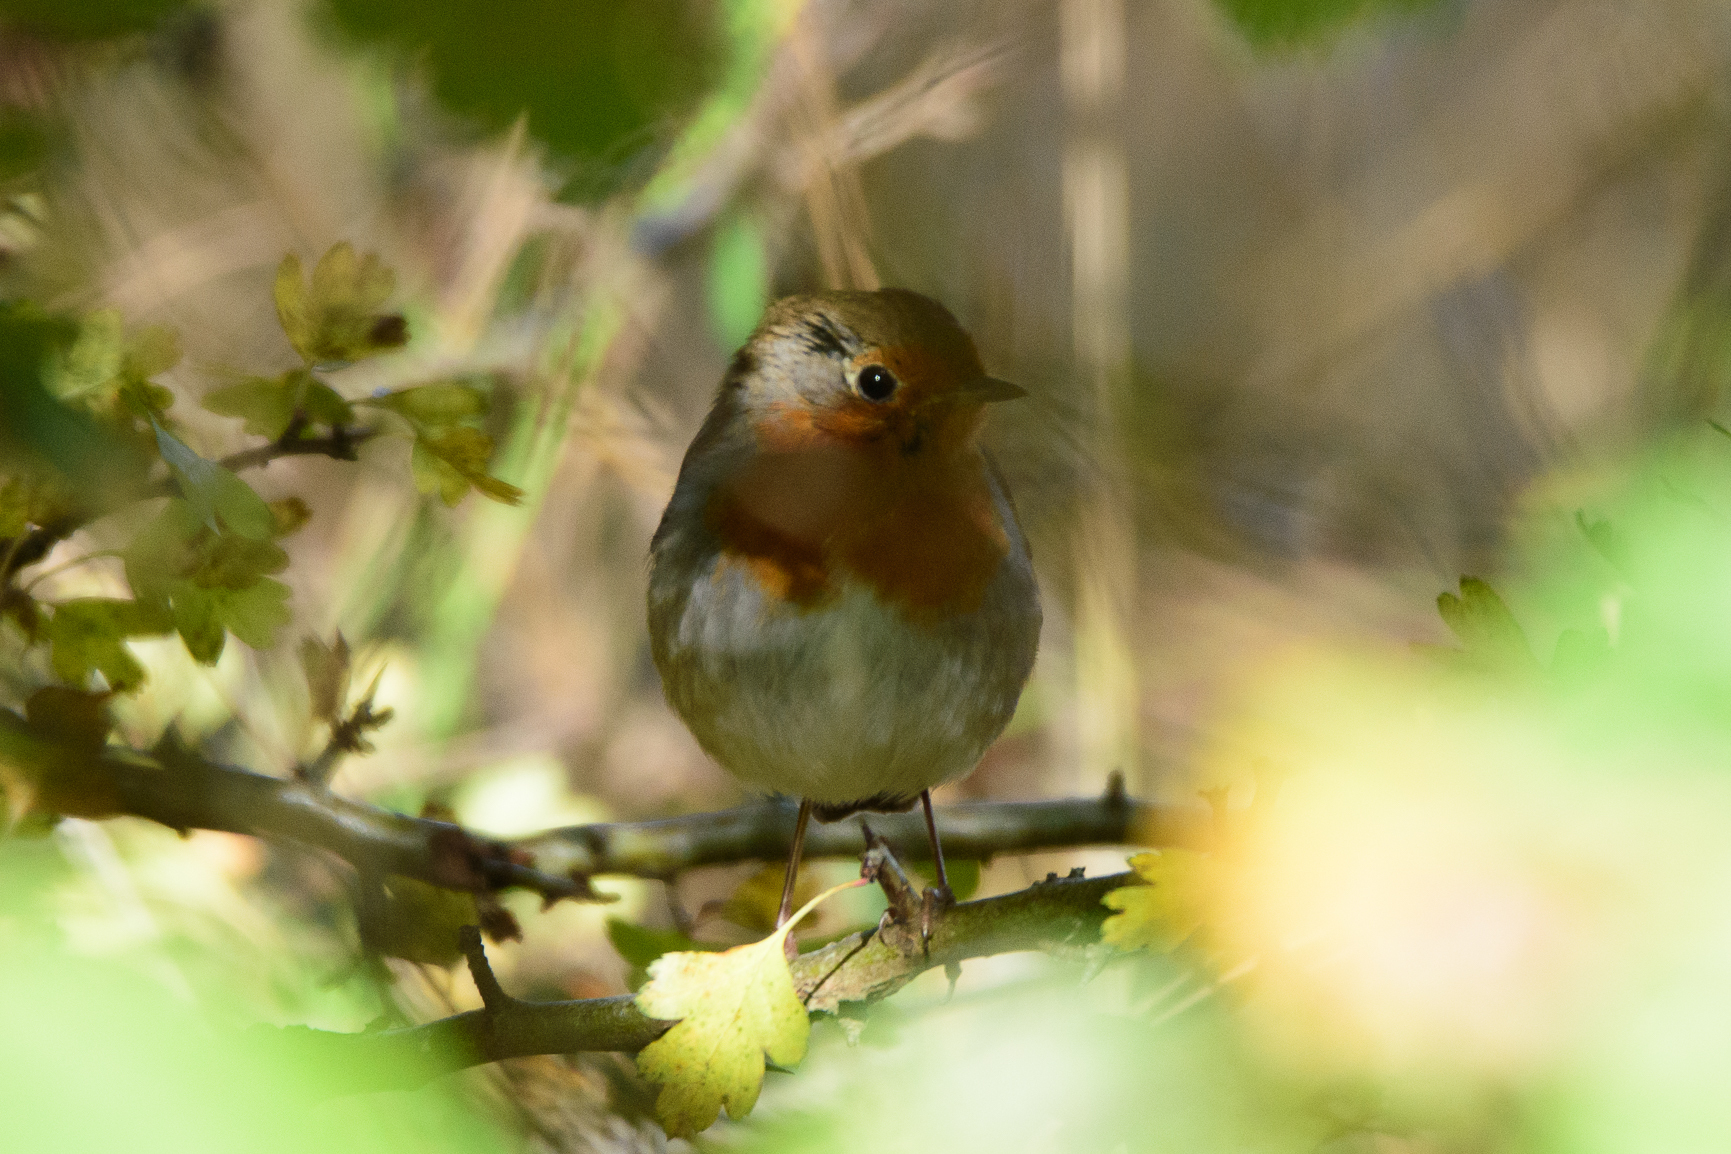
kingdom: Animalia
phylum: Chordata
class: Aves
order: Passeriformes
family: Muscicapidae
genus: Erithacus
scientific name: Erithacus rubecula
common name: European robin
